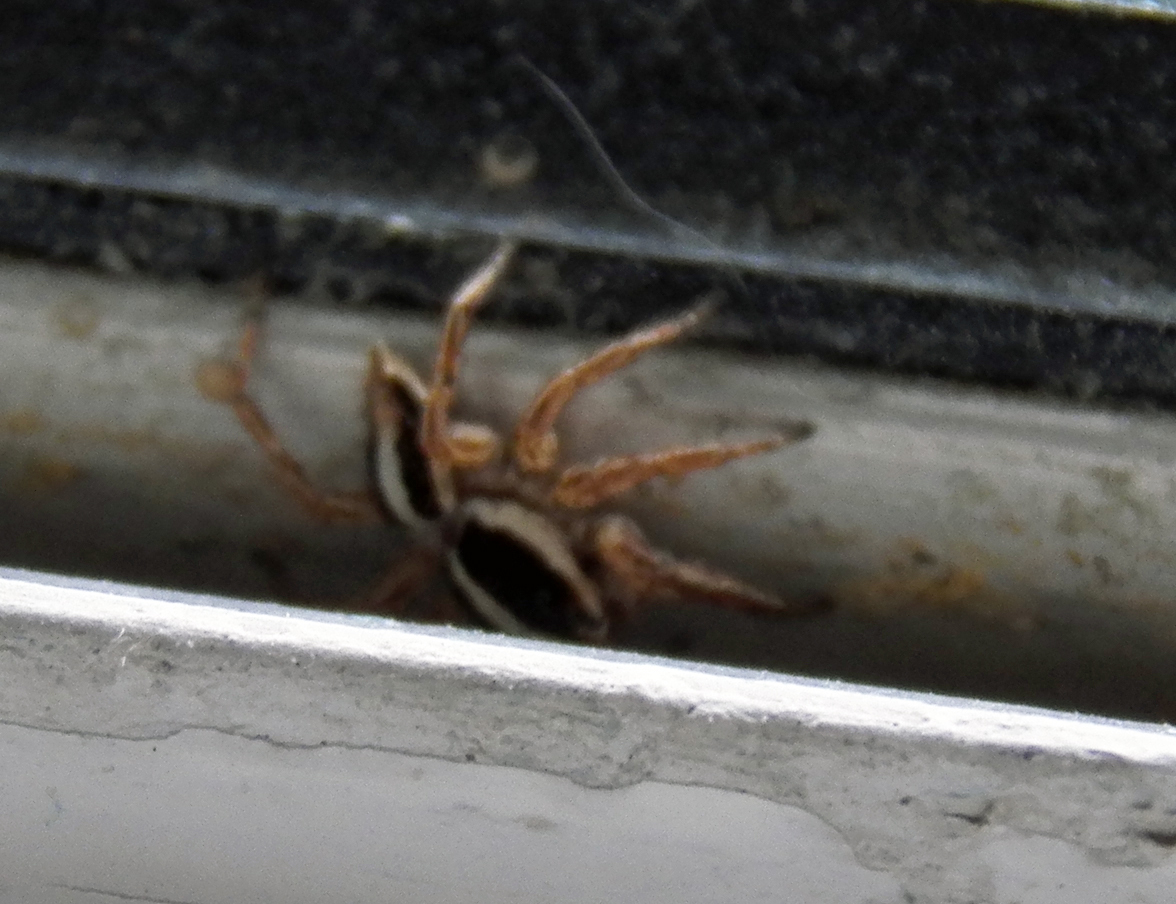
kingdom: Animalia
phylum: Arthropoda
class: Arachnida
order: Araneae
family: Salticidae
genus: Plexippus
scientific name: Plexippus paykulli
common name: Pantropical jumper
